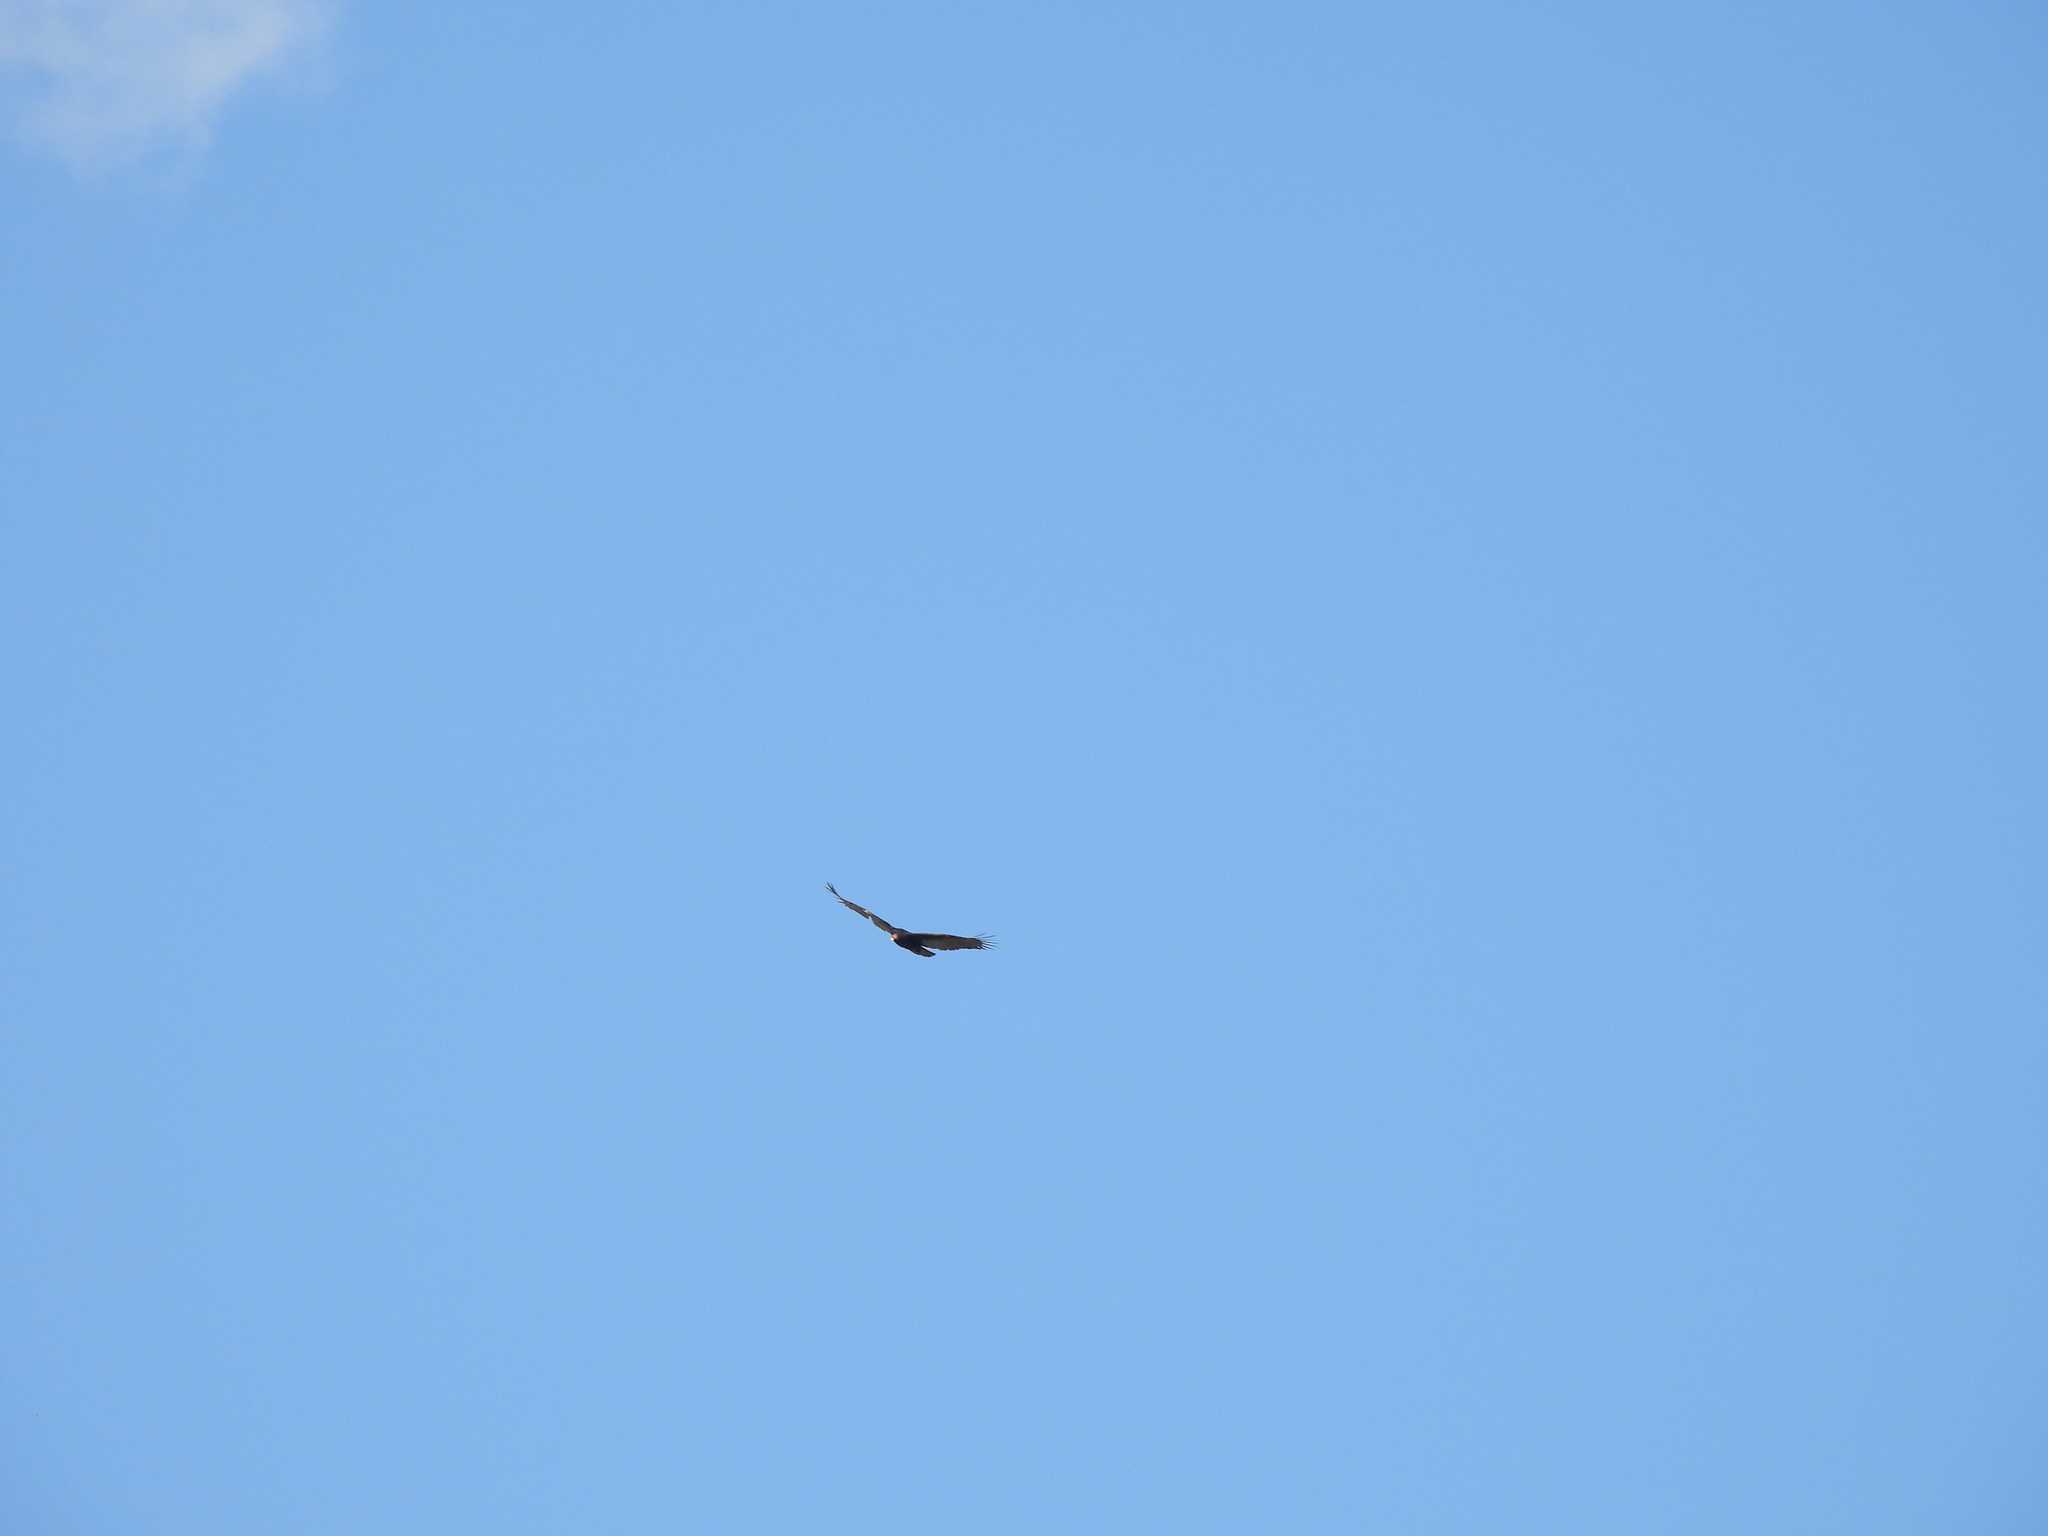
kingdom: Animalia
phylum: Chordata
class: Aves
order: Accipitriformes
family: Cathartidae
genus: Cathartes
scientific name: Cathartes aura
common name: Turkey vulture
